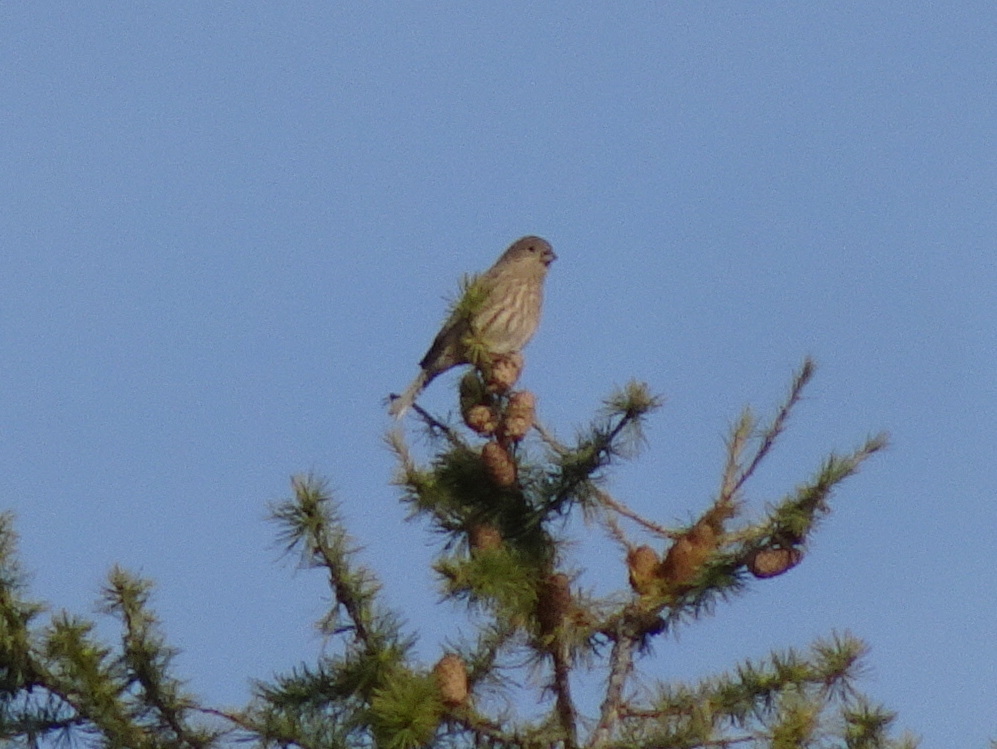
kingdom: Animalia
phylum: Chordata
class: Aves
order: Passeriformes
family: Fringillidae
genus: Haemorhous
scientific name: Haemorhous mexicanus
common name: House finch
